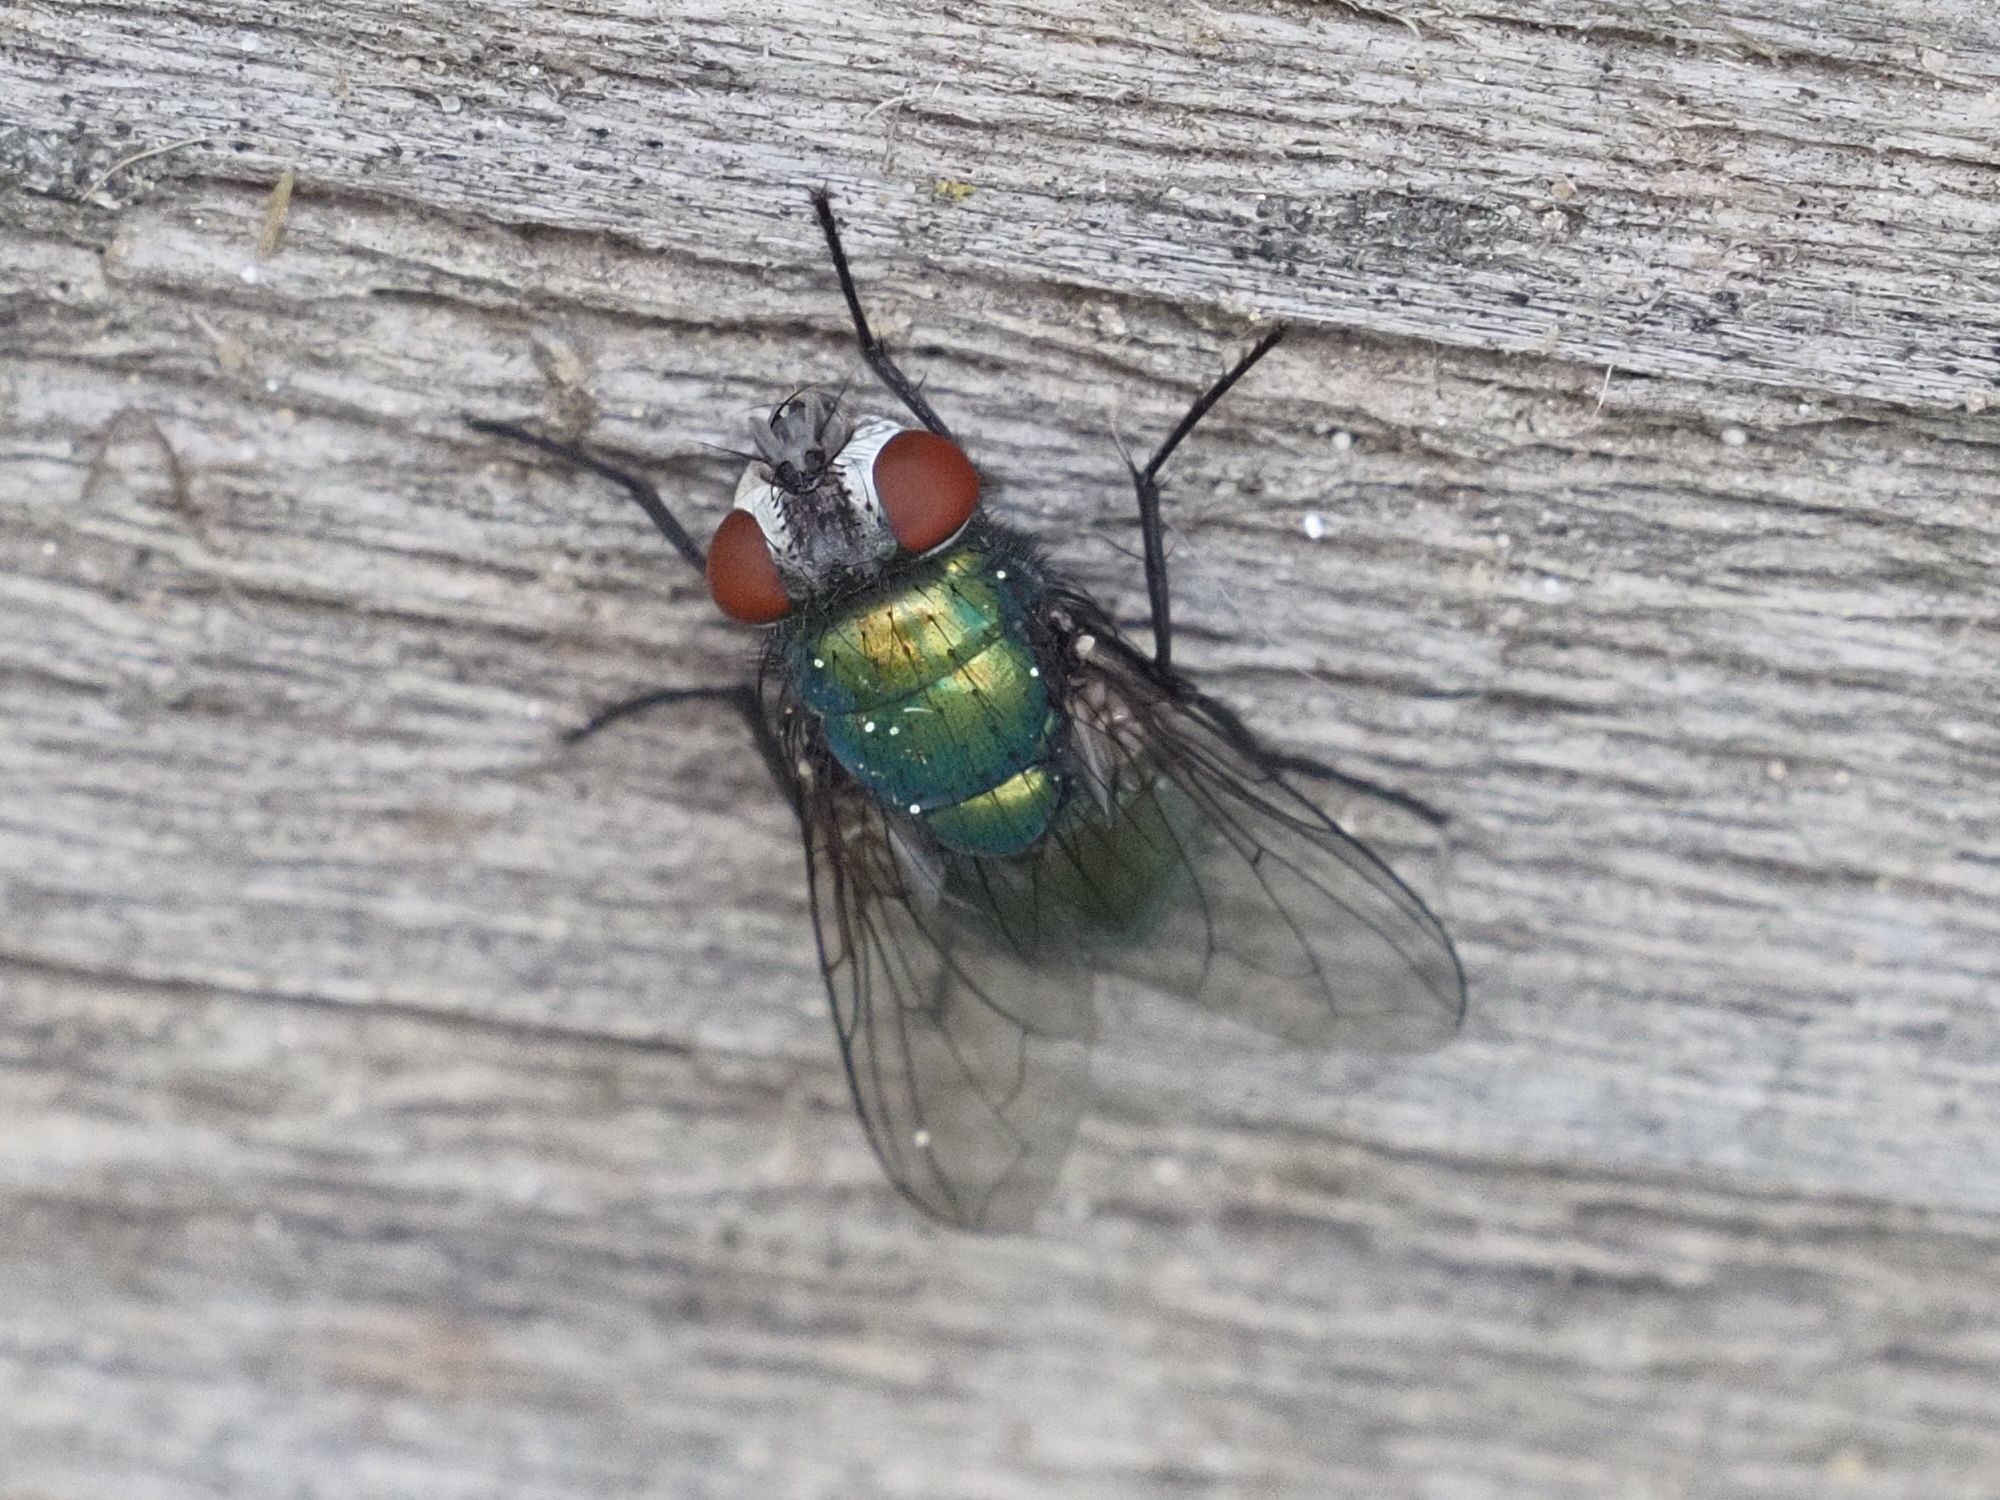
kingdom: Animalia
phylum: Arthropoda
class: Insecta
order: Diptera
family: Calliphoridae
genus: Lucilia
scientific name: Lucilia
